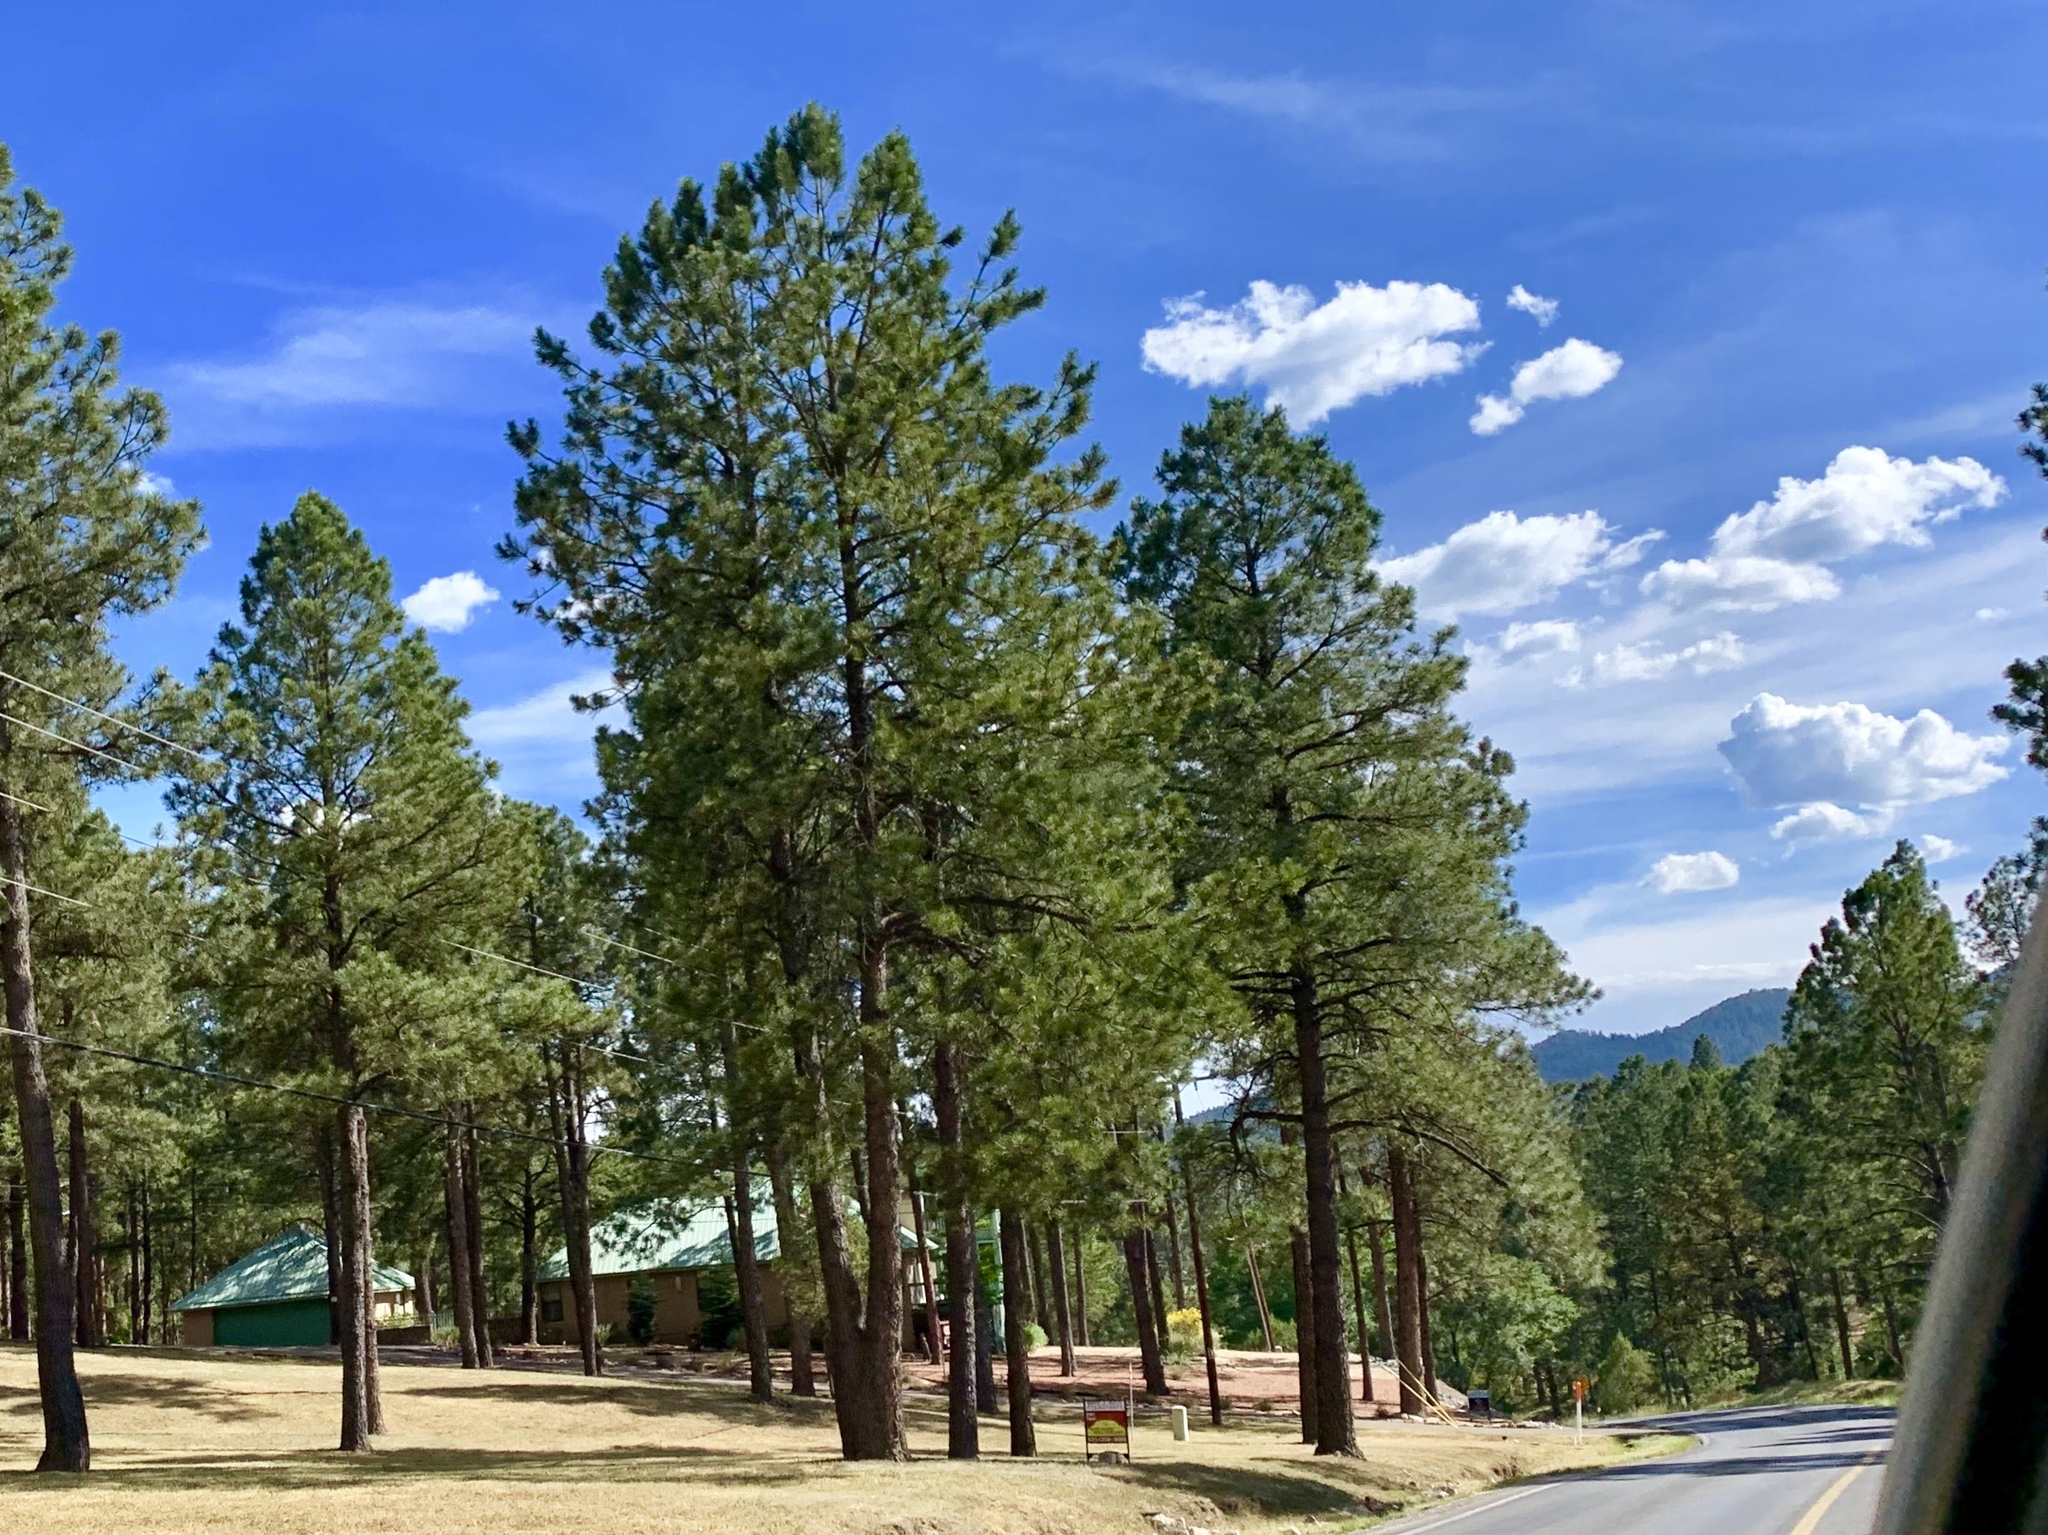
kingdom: Plantae
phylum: Tracheophyta
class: Pinopsida
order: Pinales
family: Pinaceae
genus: Pinus
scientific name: Pinus ponderosa
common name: Western yellow-pine
